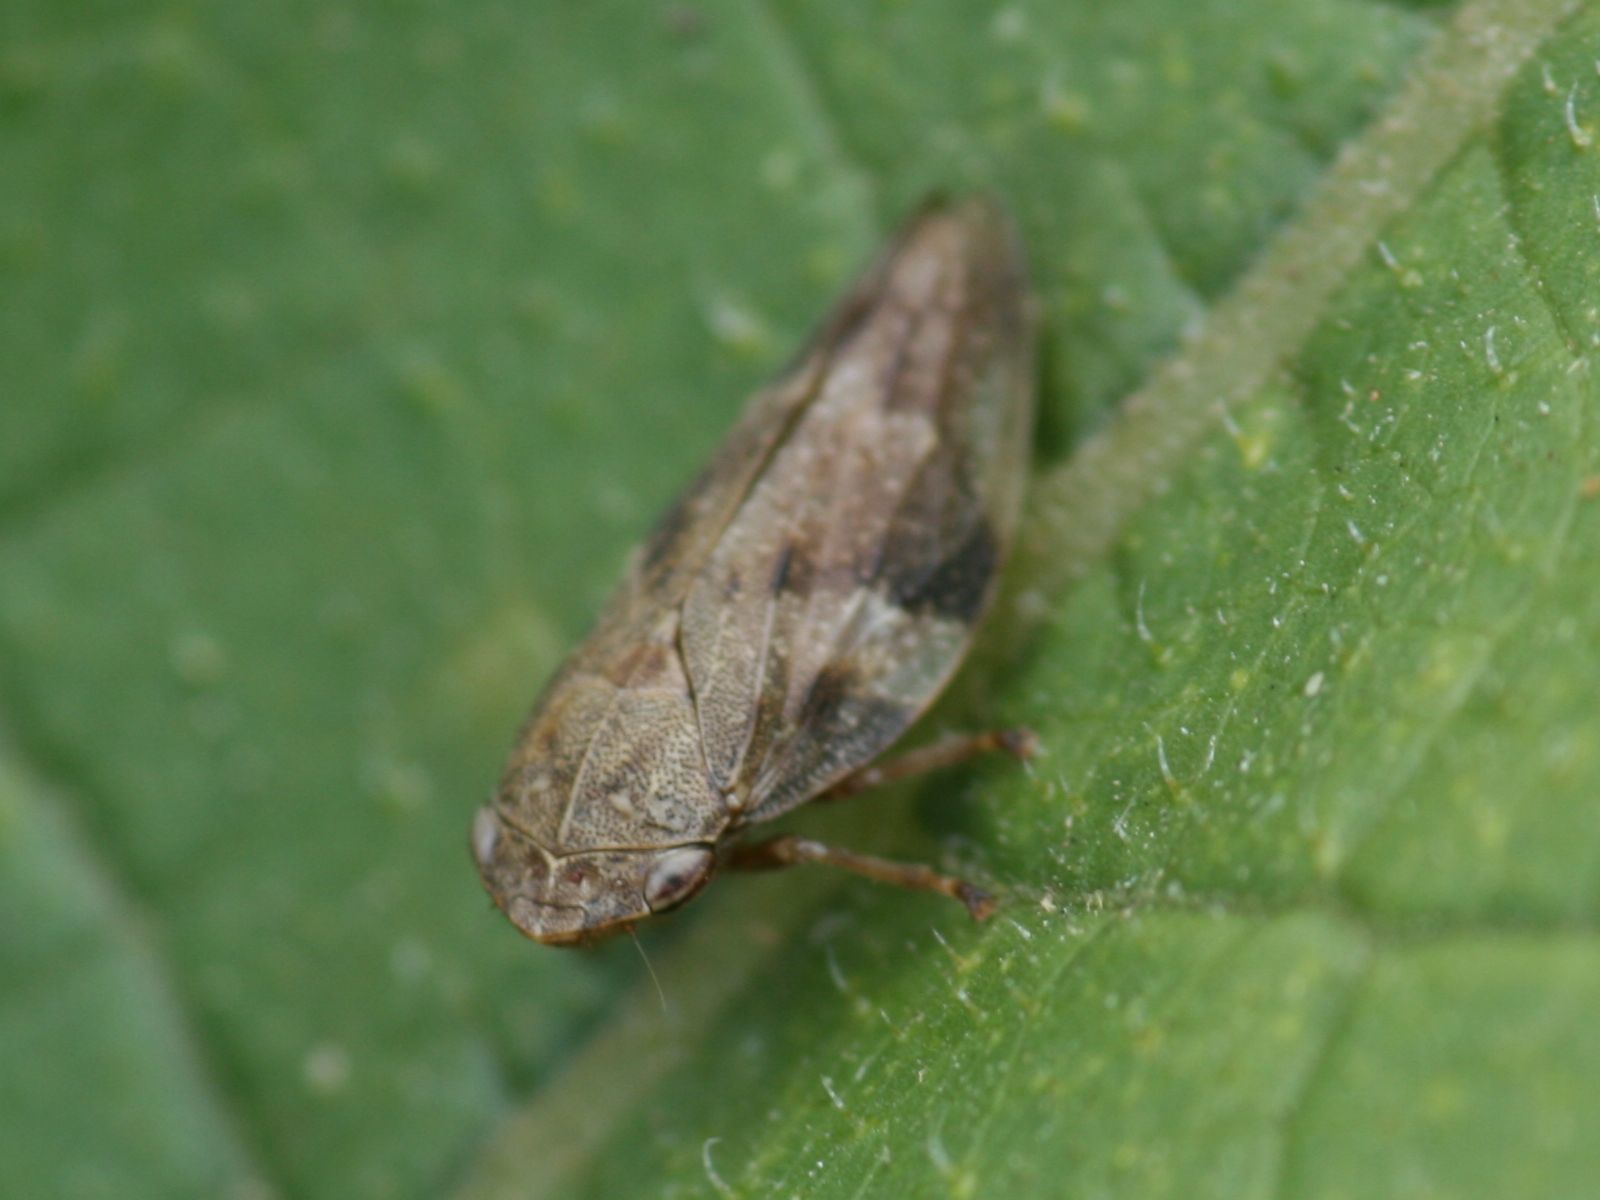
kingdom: Animalia
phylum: Arthropoda
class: Insecta
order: Hemiptera
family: Aphrophoridae
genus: Aphrophora
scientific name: Aphrophora alni
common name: European alder spittlebug
